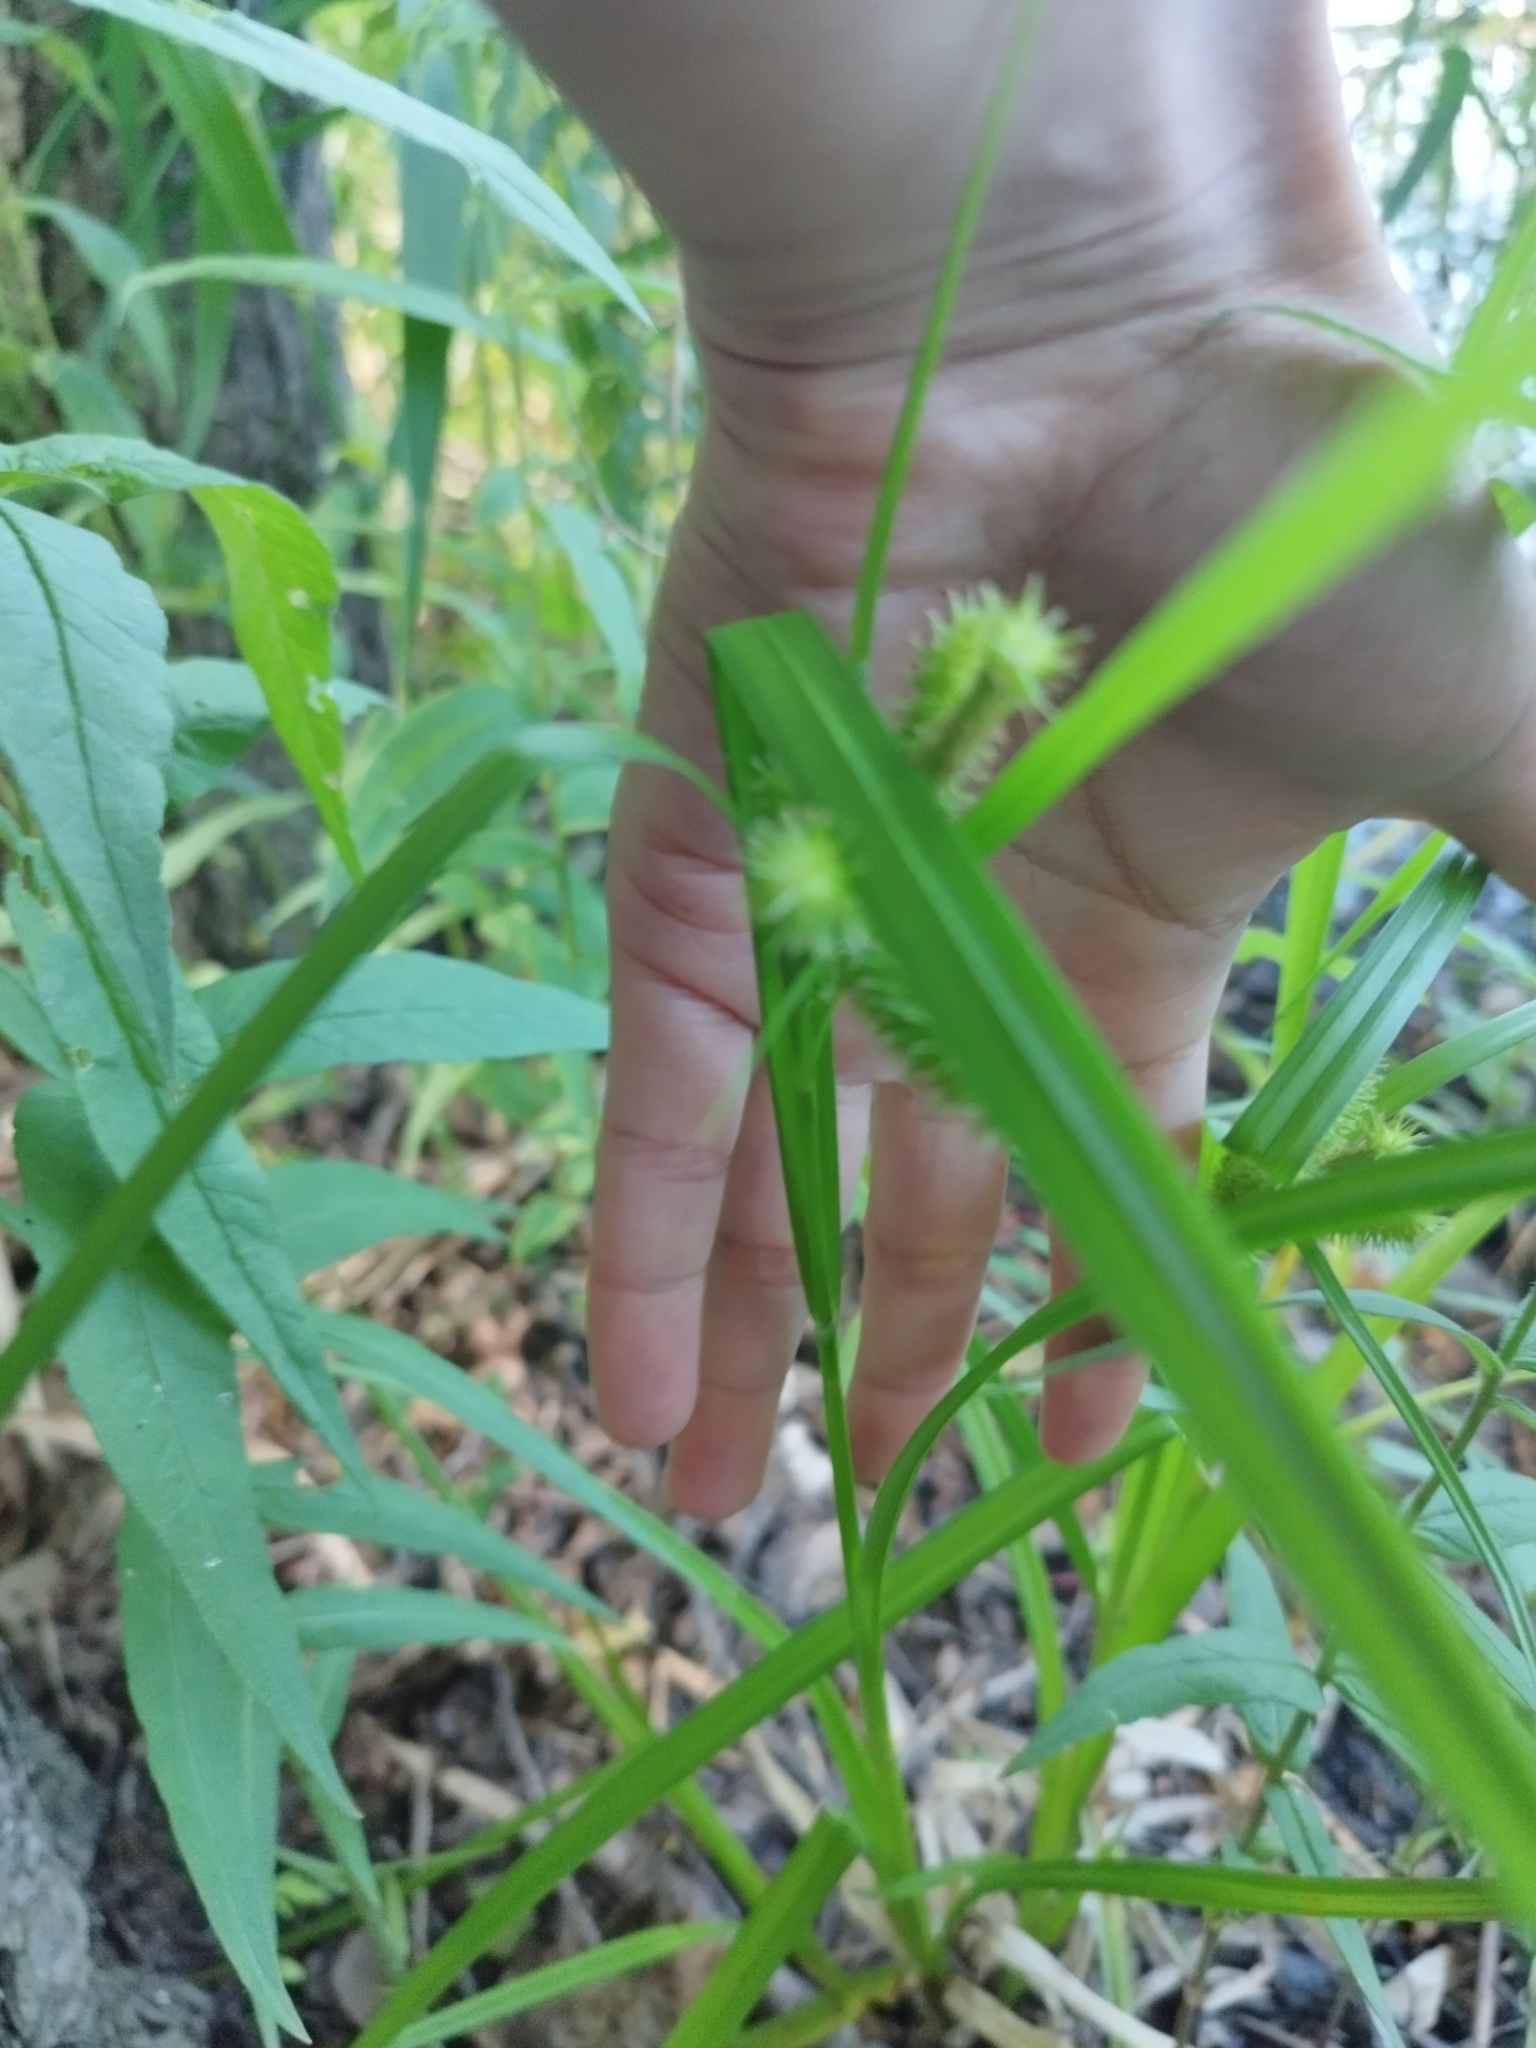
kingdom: Plantae
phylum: Tracheophyta
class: Liliopsida
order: Poales
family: Cyperaceae
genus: Carex
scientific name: Carex pseudocyperus
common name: Cyperus sedge
